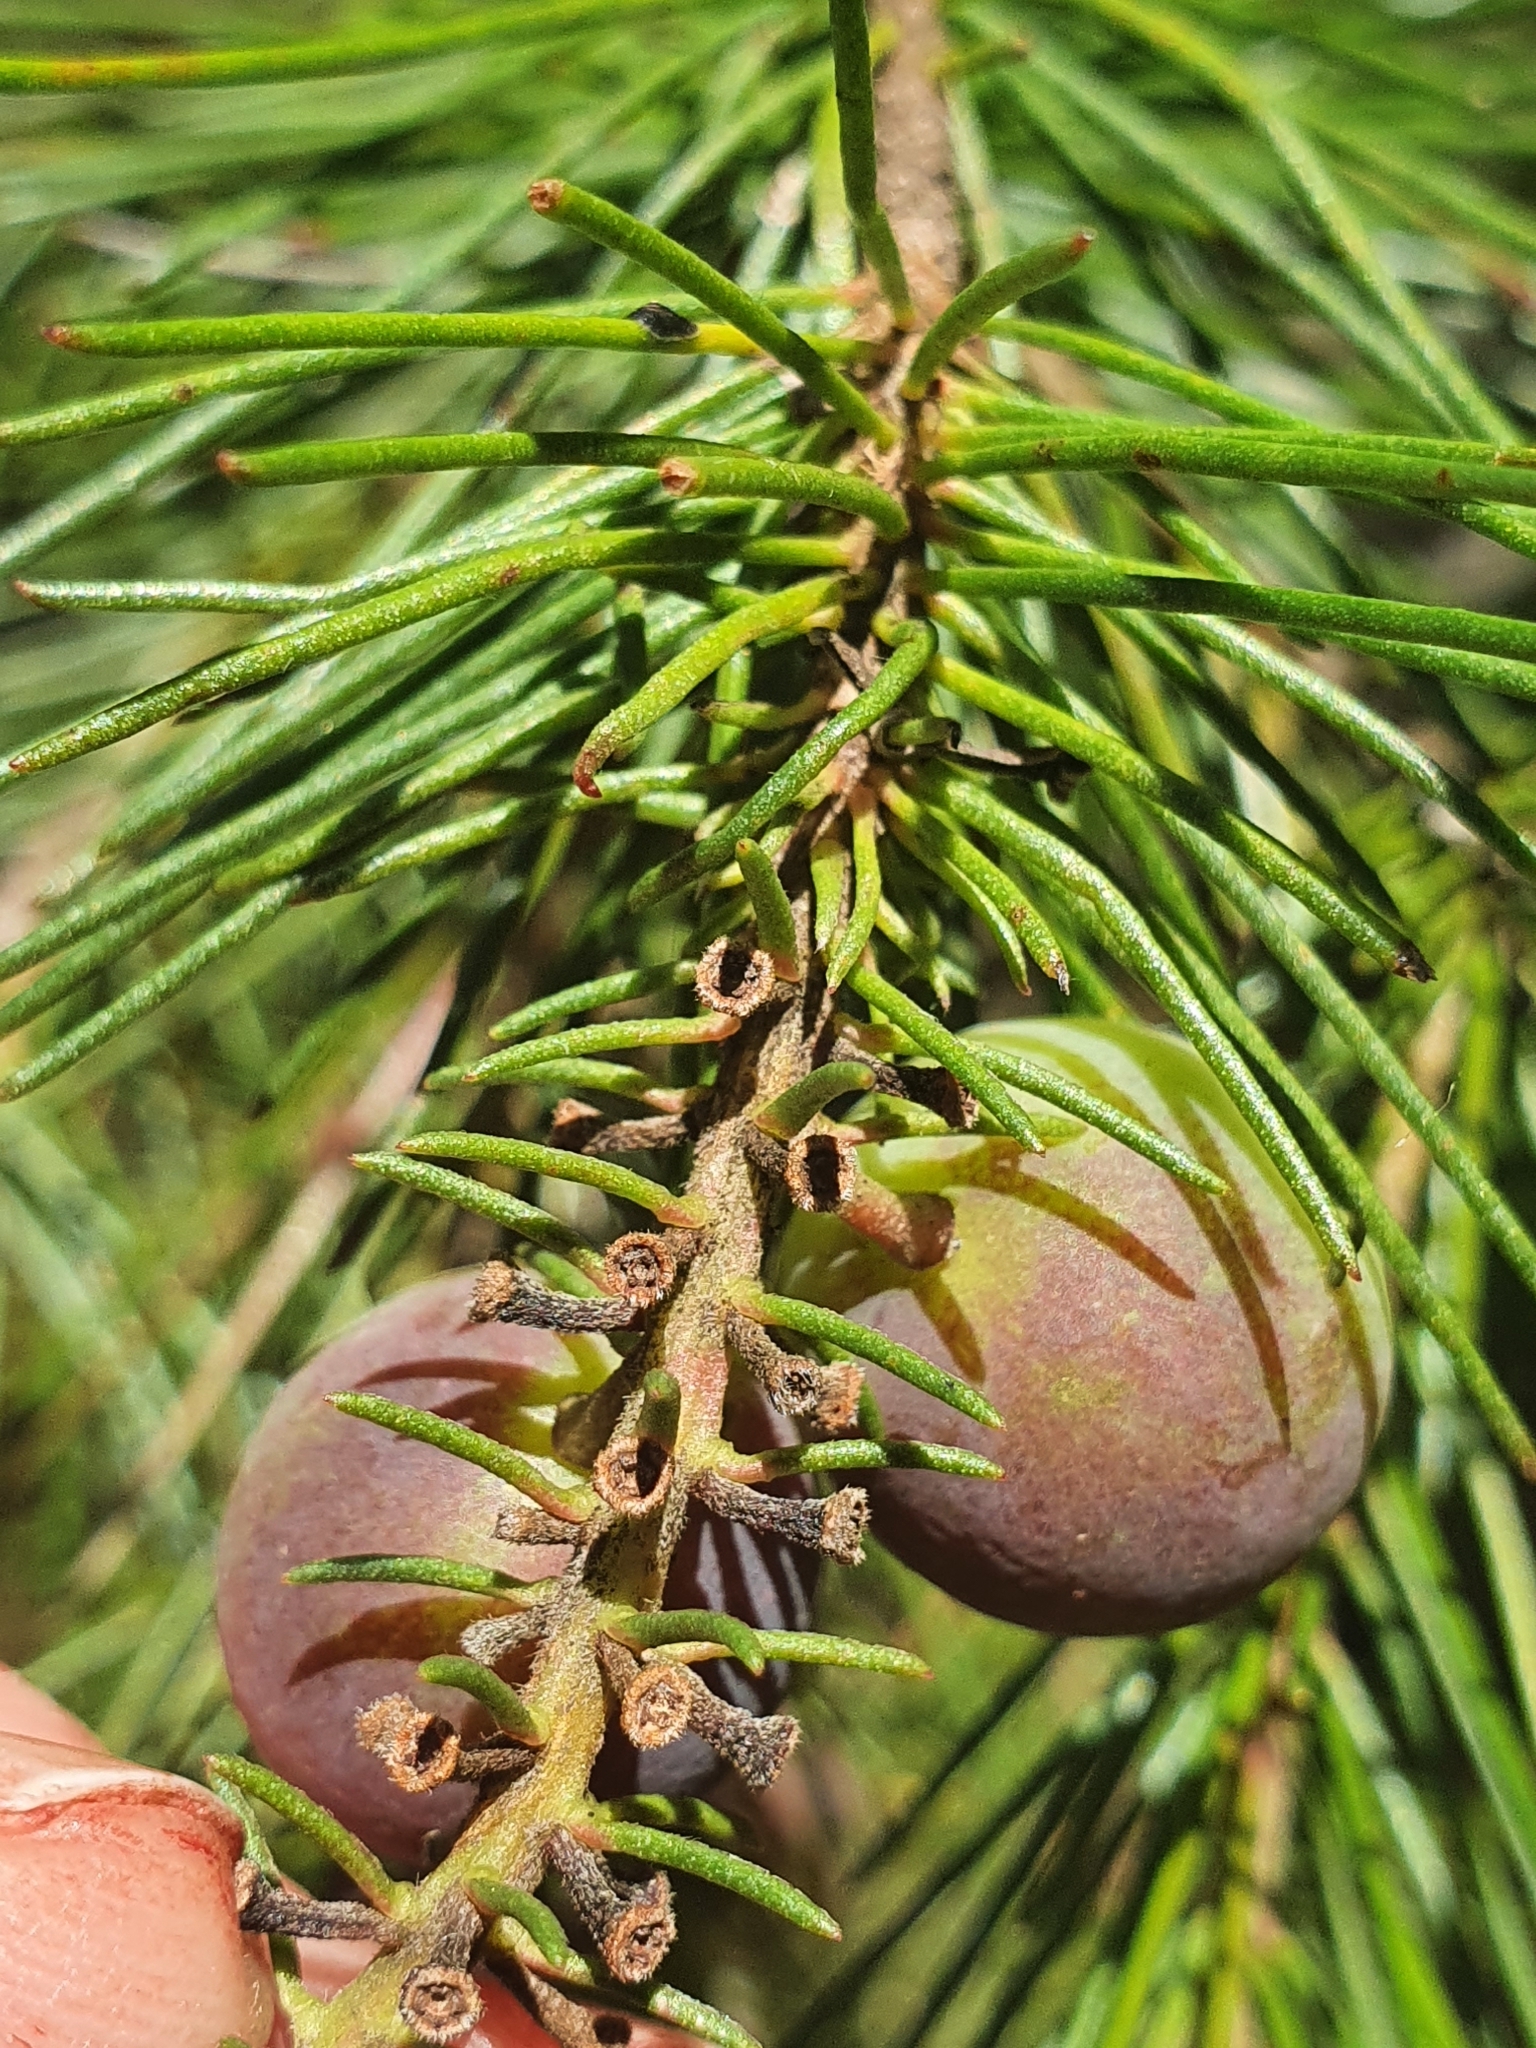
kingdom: Plantae
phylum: Tracheophyta
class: Magnoliopsida
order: Proteales
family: Proteaceae
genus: Persoonia
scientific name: Persoonia pinifolia
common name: Pine-leaf geebung
